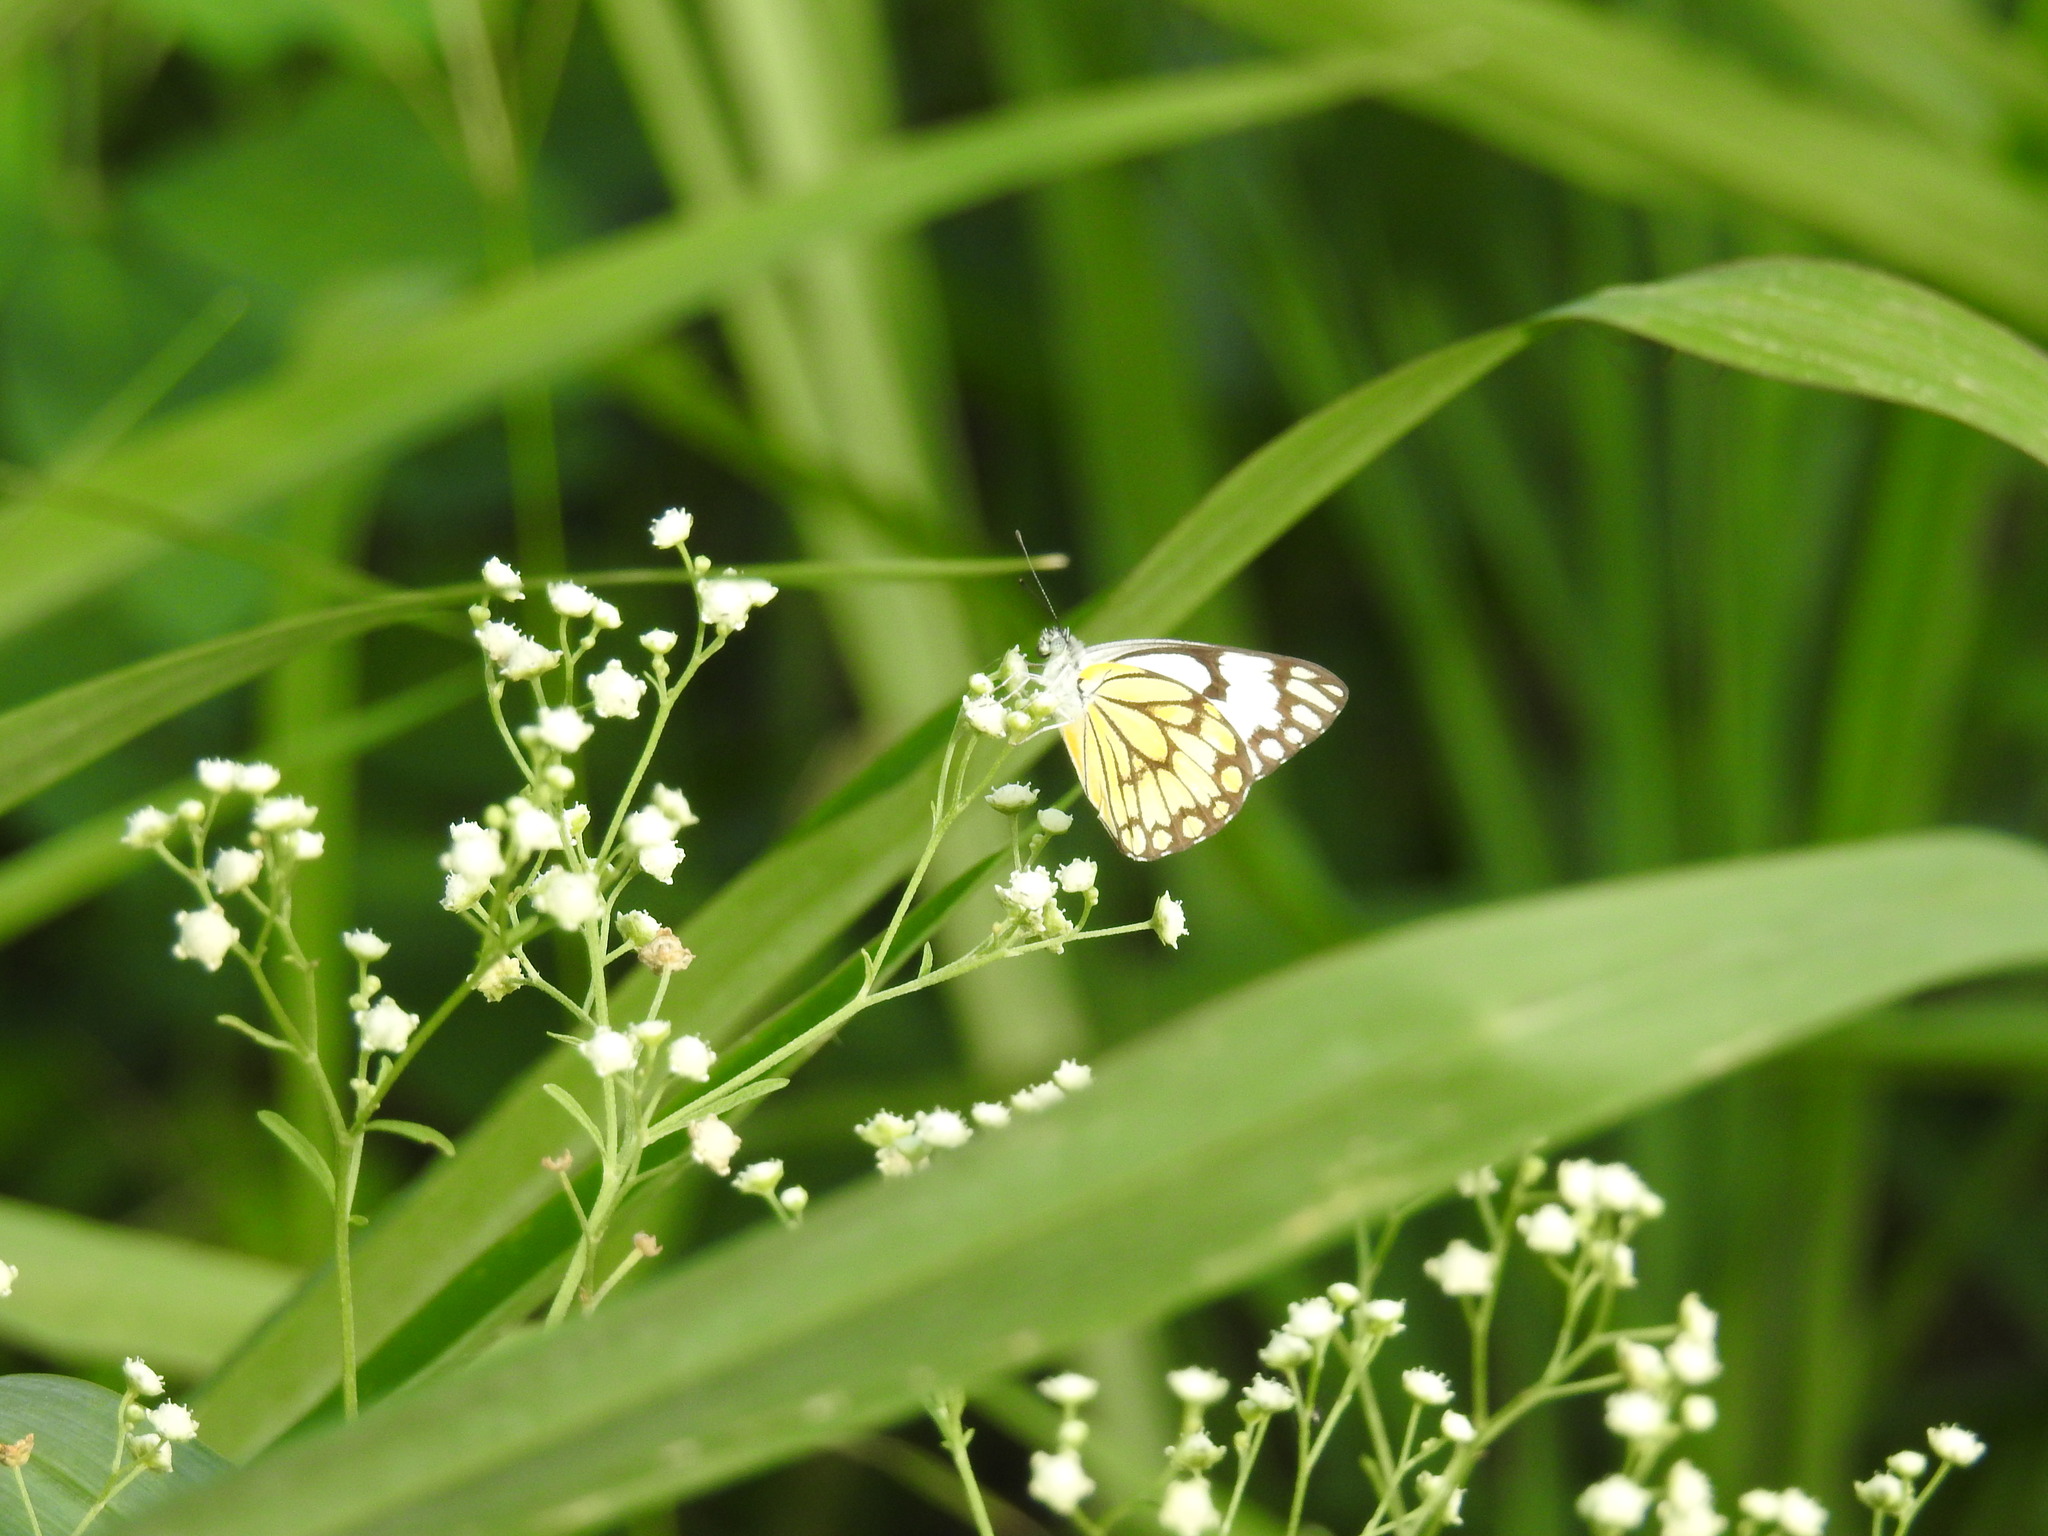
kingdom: Animalia
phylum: Arthropoda
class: Insecta
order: Lepidoptera
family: Pieridae
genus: Belenois
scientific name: Belenois aurota
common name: Brown-veined white
